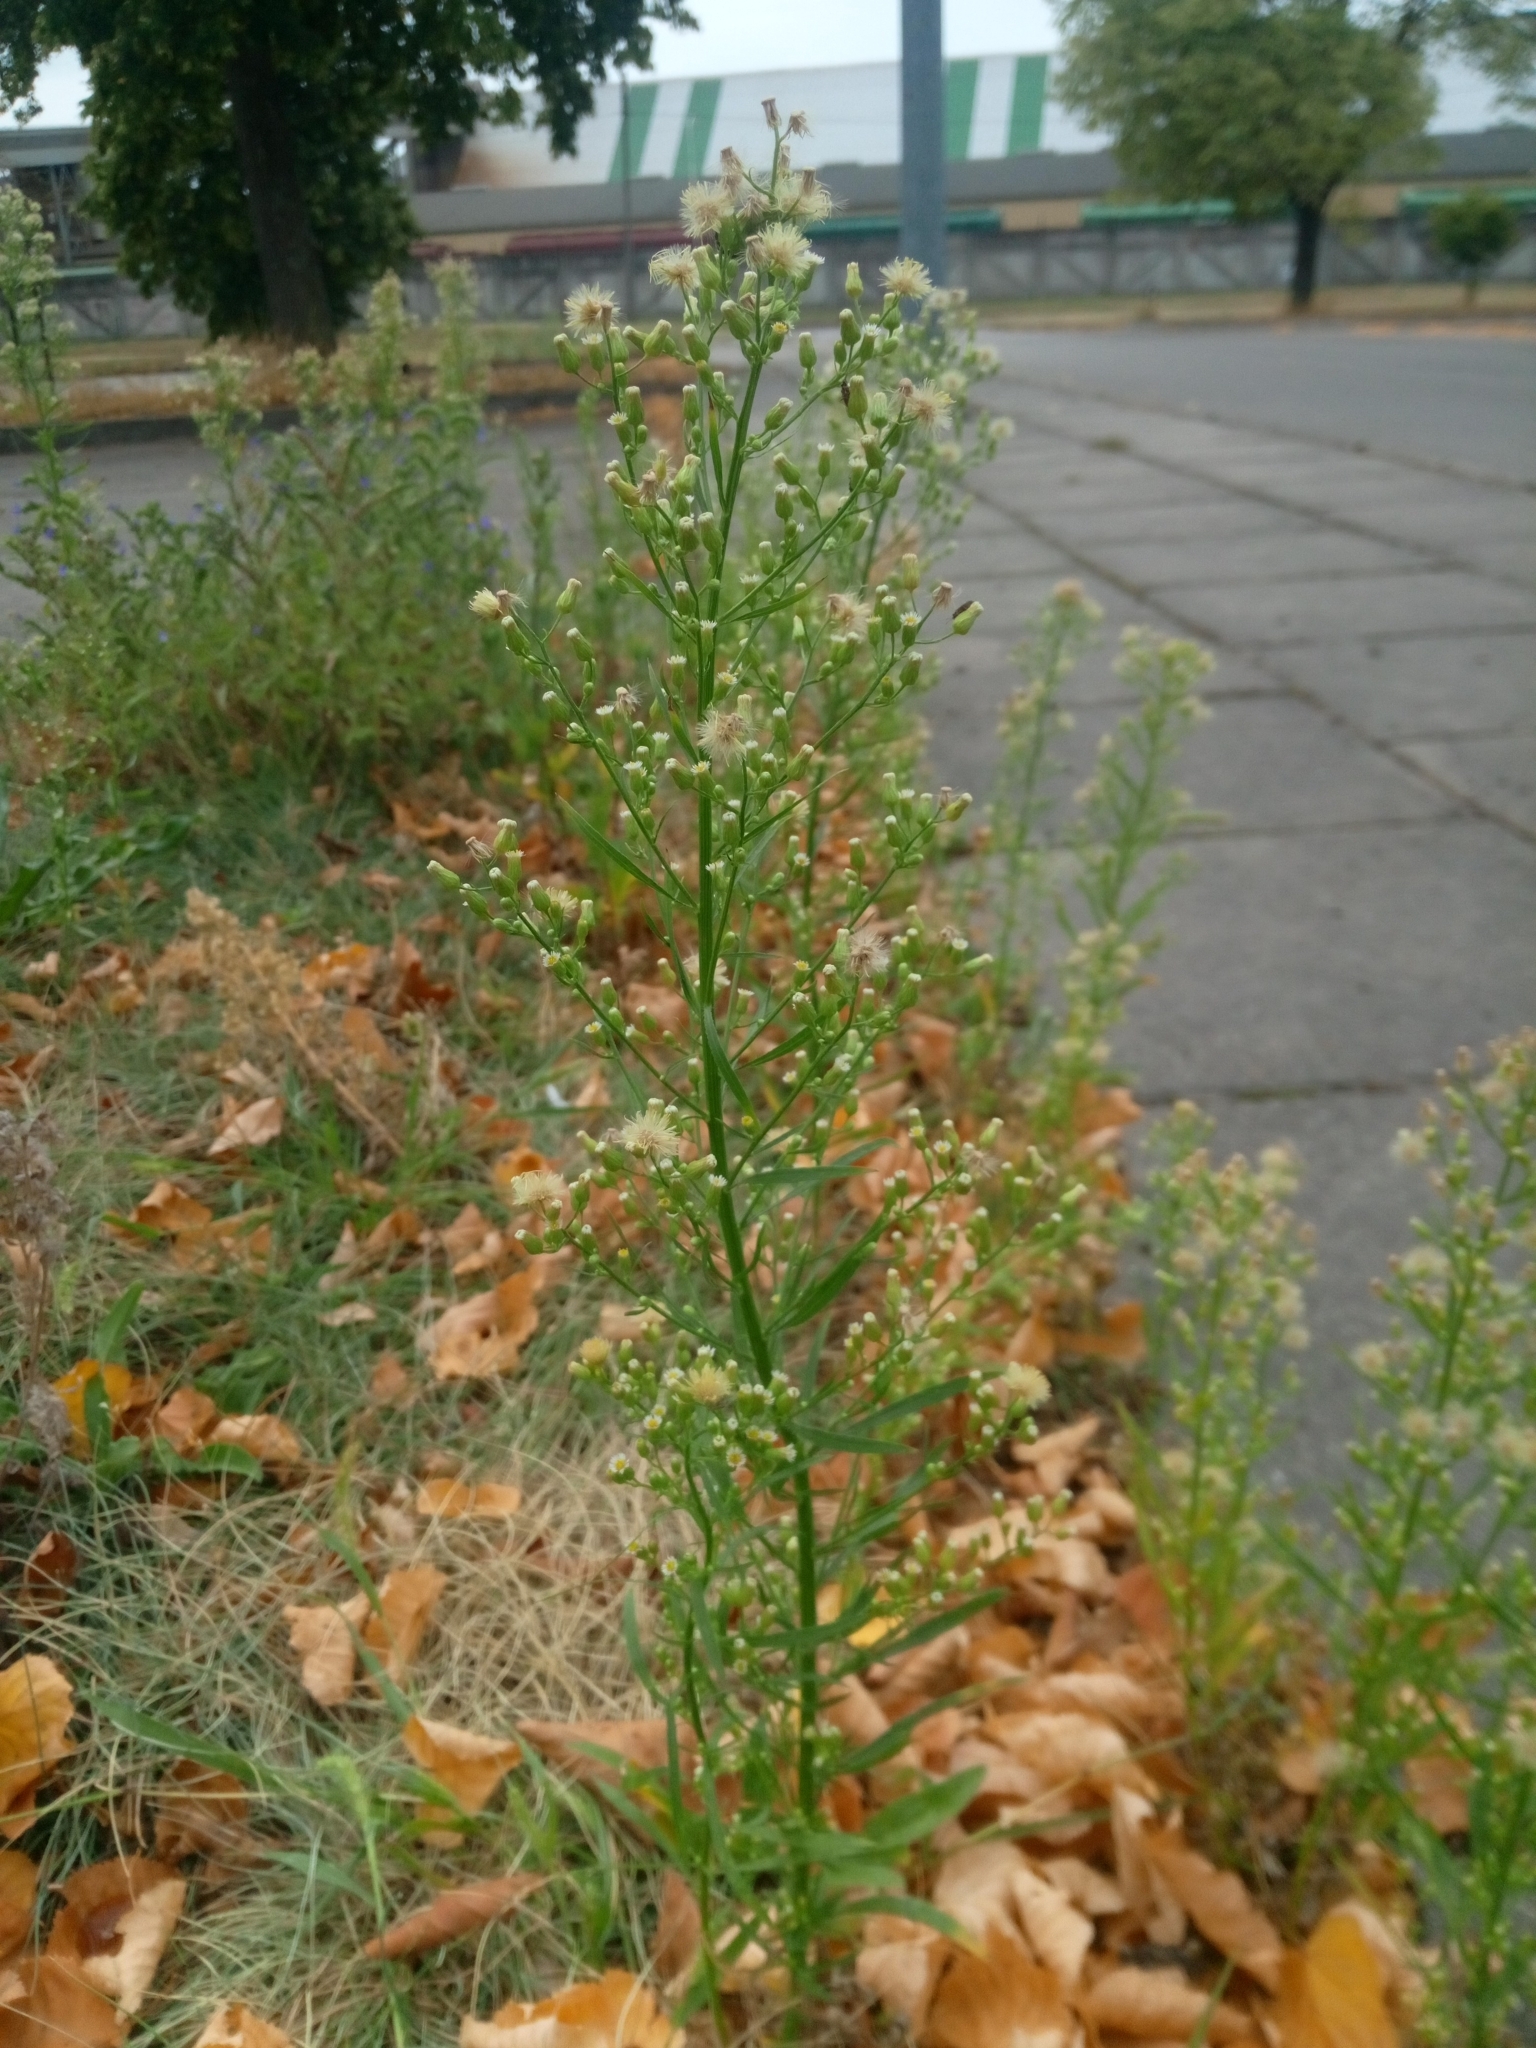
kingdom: Plantae
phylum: Tracheophyta
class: Magnoliopsida
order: Asterales
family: Asteraceae
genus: Erigeron
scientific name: Erigeron canadensis
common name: Canadian fleabane
